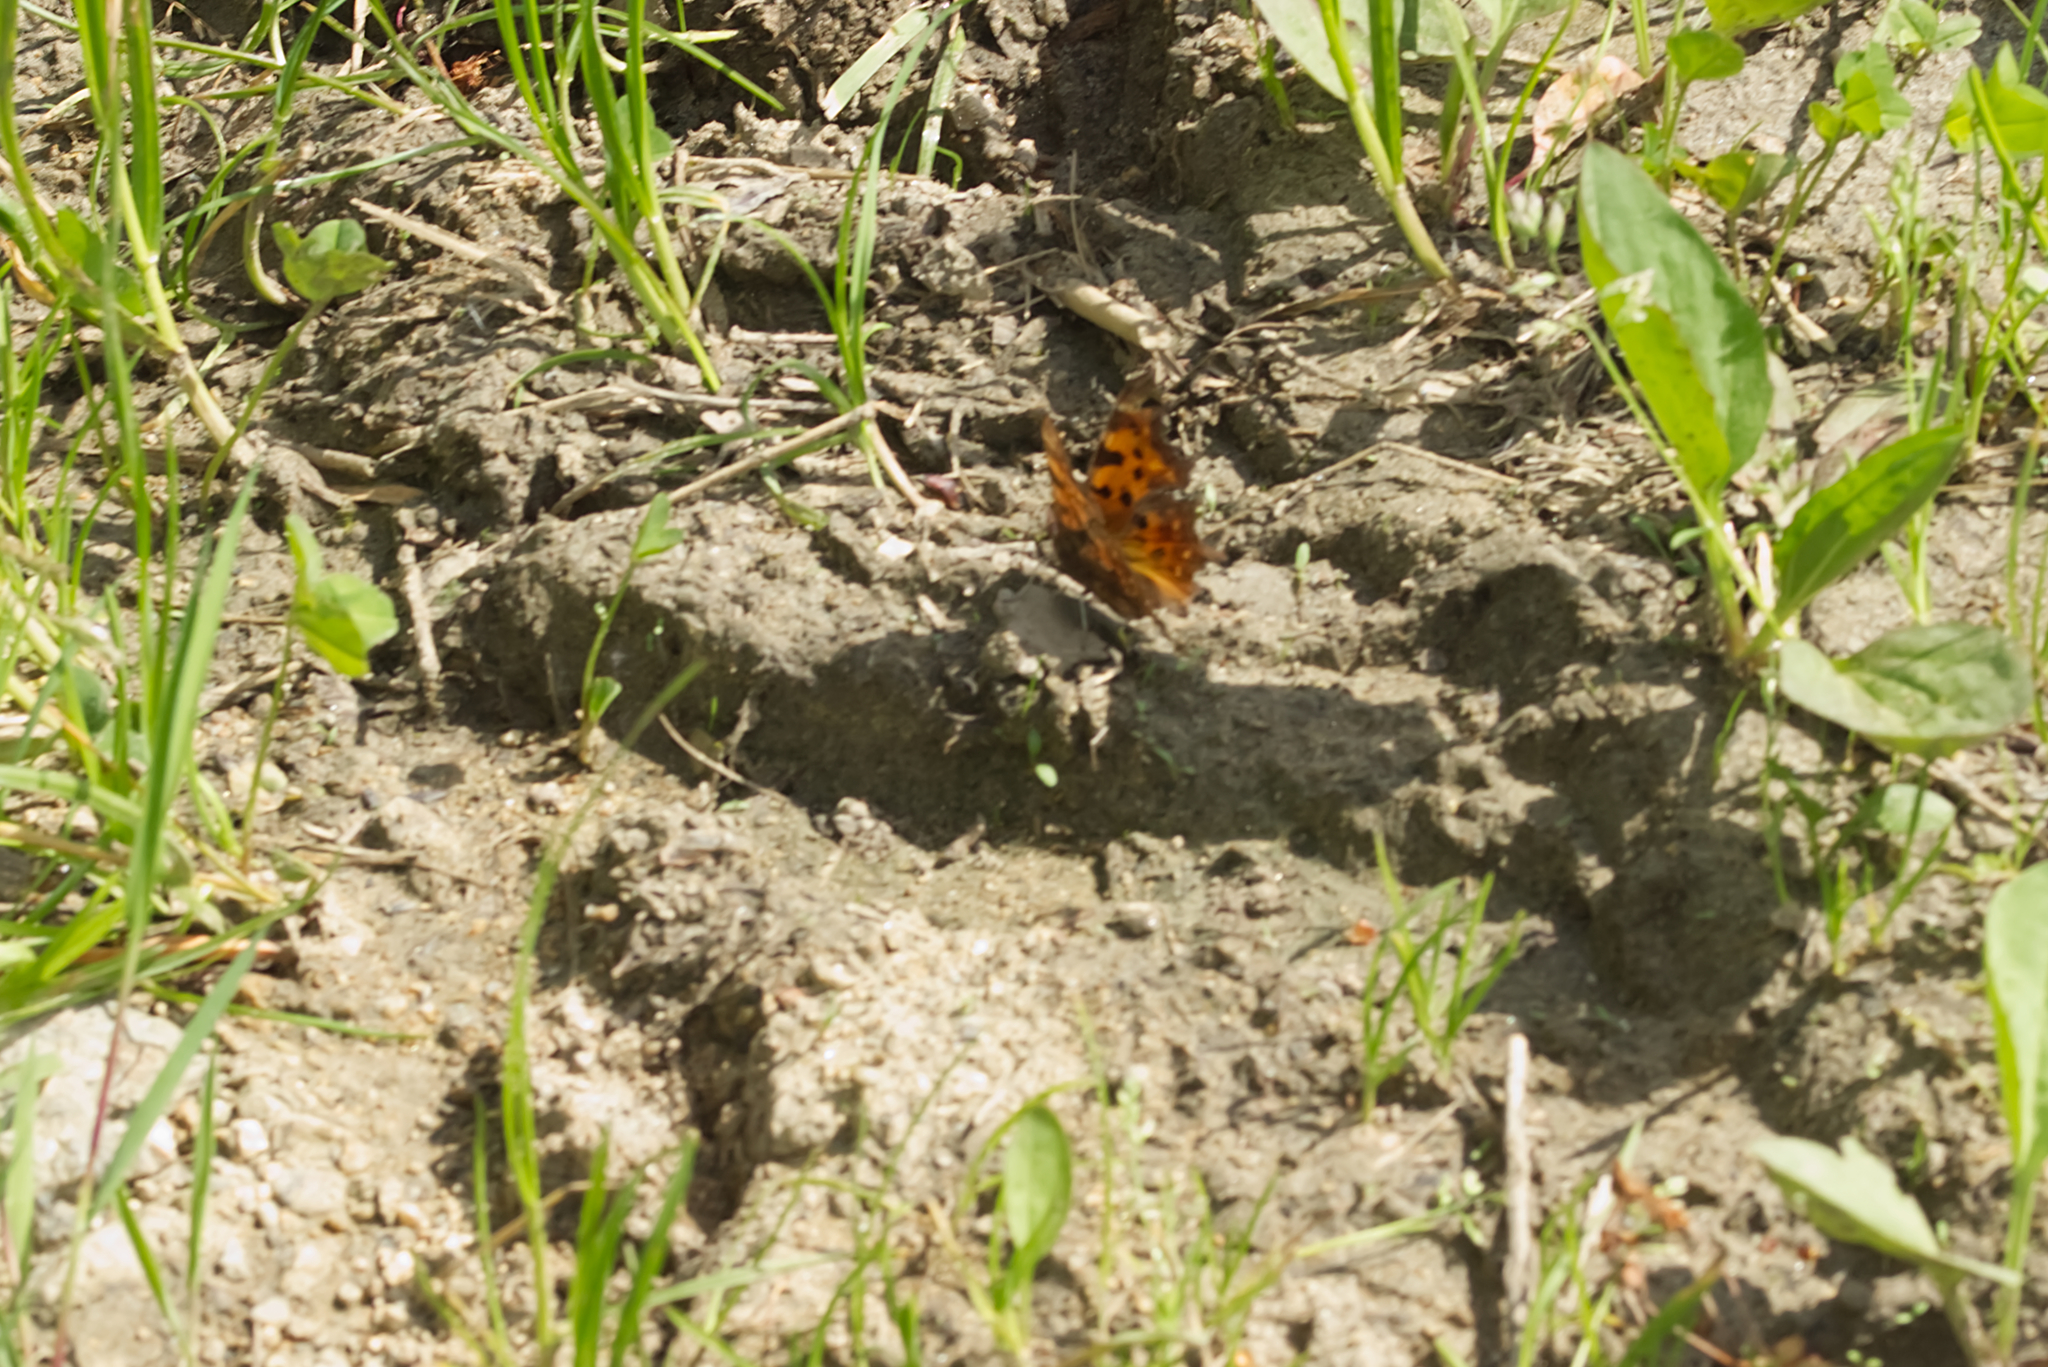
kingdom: Animalia
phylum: Arthropoda
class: Insecta
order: Lepidoptera
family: Nymphalidae
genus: Polygonia
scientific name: Polygonia c-album
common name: Comma
